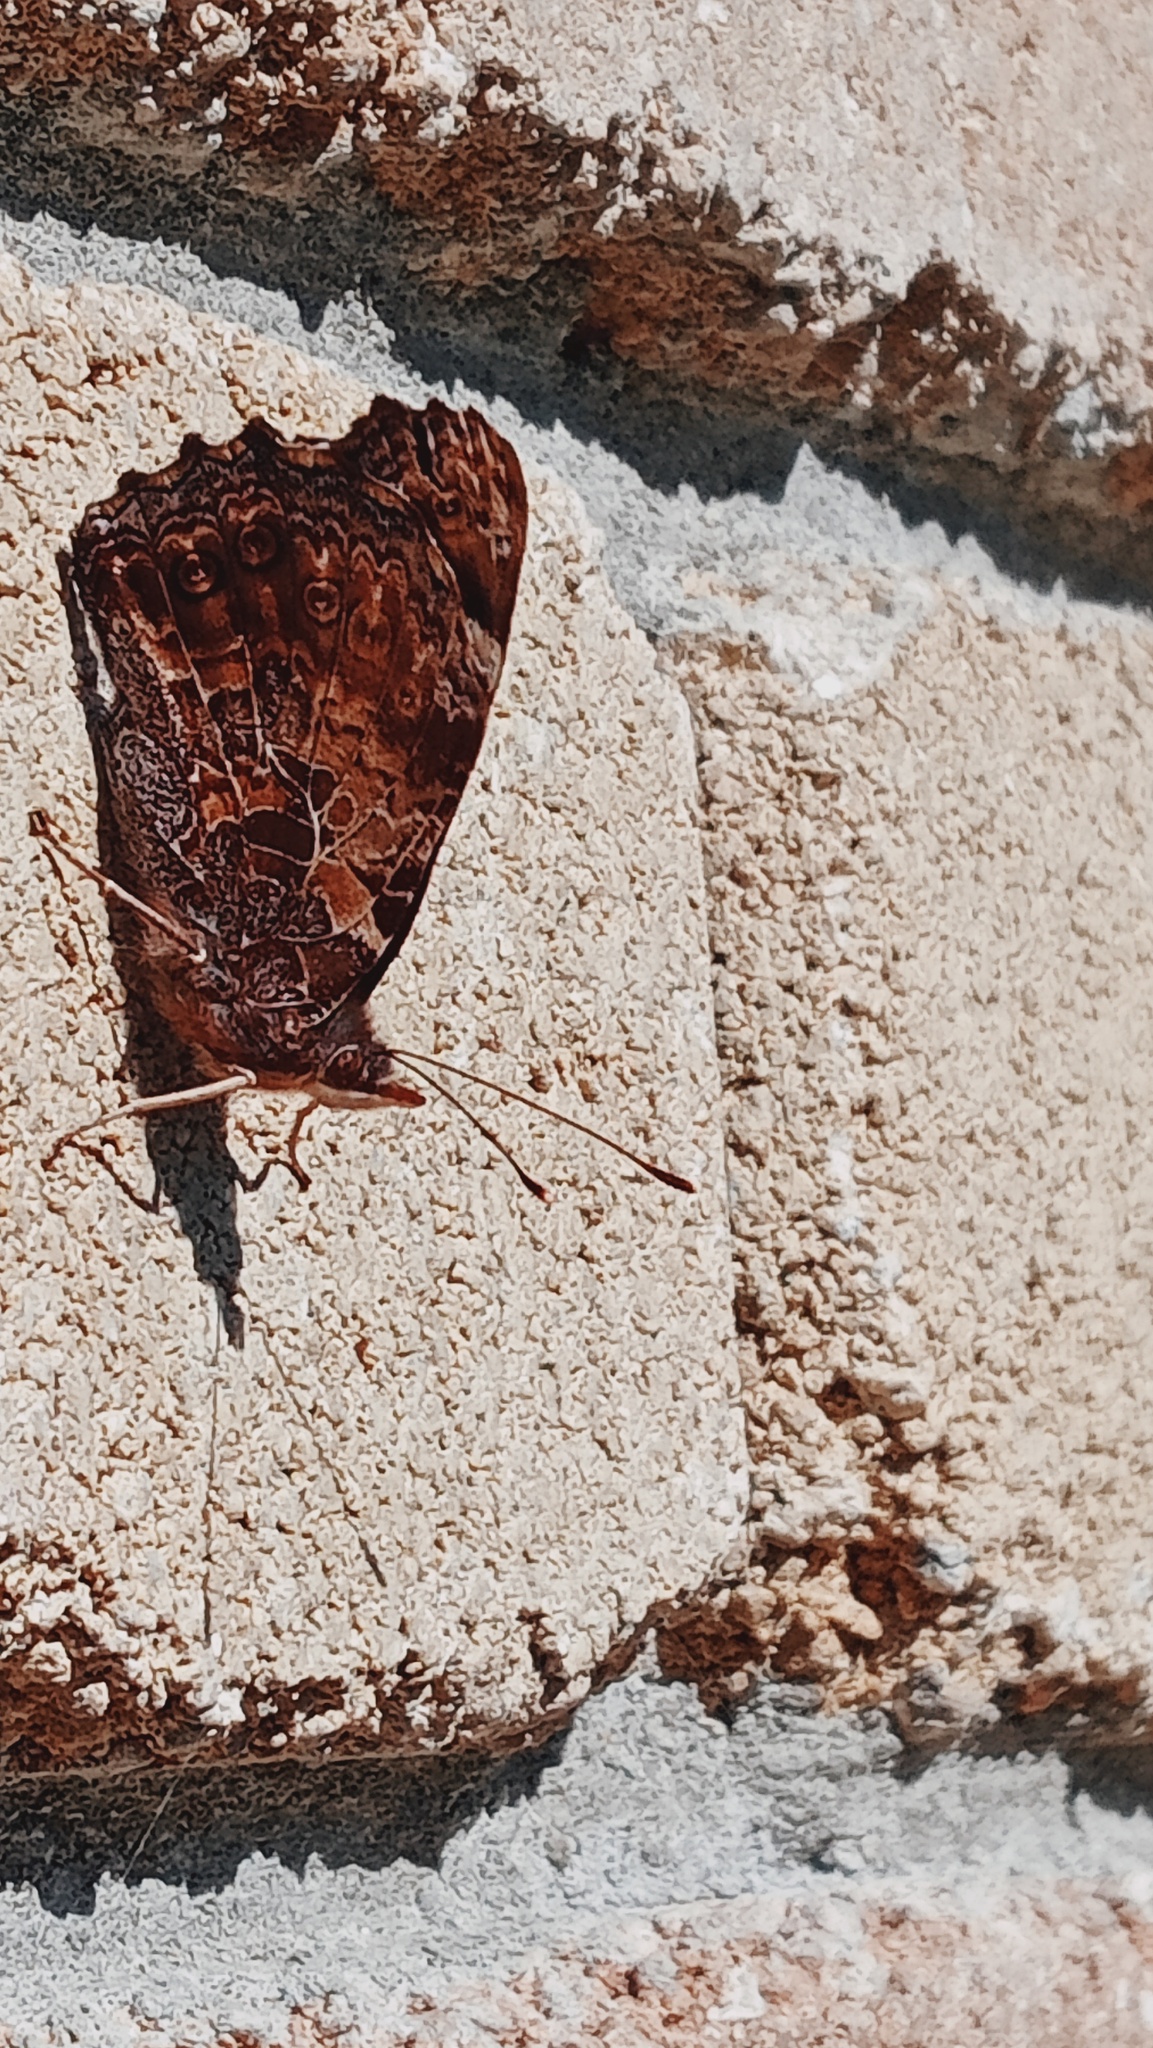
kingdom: Animalia
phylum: Arthropoda
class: Insecta
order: Lepidoptera
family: Nymphalidae
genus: Vanessa
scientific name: Vanessa gonerilla
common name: New zealand red admiral
